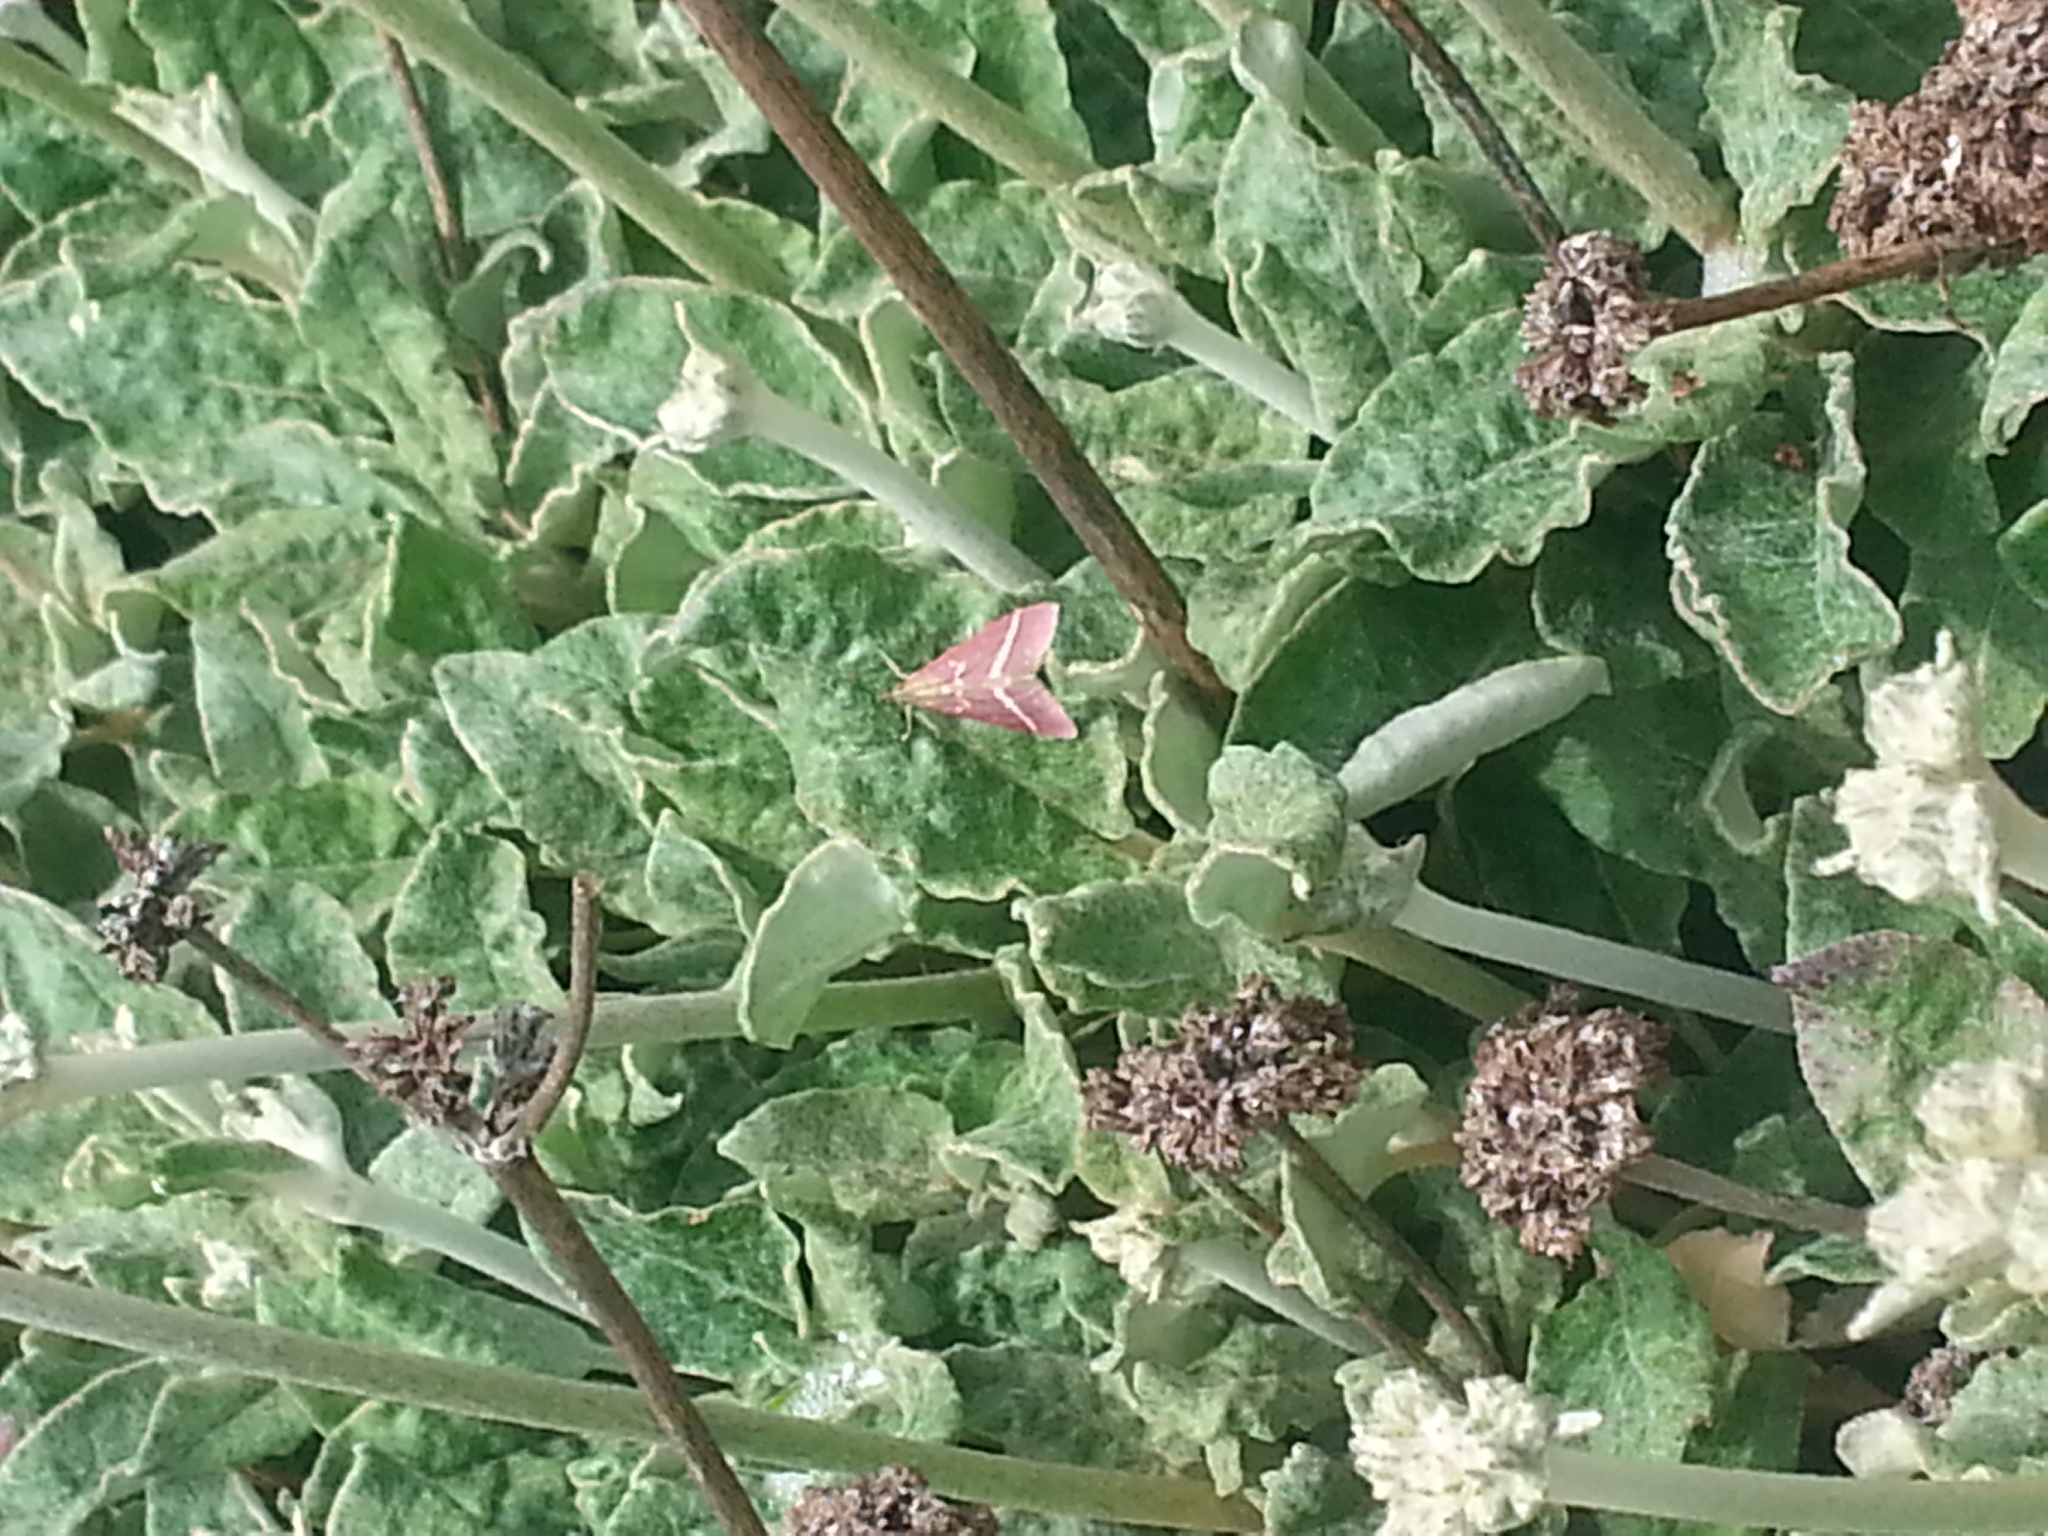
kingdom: Animalia
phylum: Arthropoda
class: Insecta
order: Lepidoptera
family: Crambidae
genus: Pyrausta
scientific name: Pyrausta volupialis
